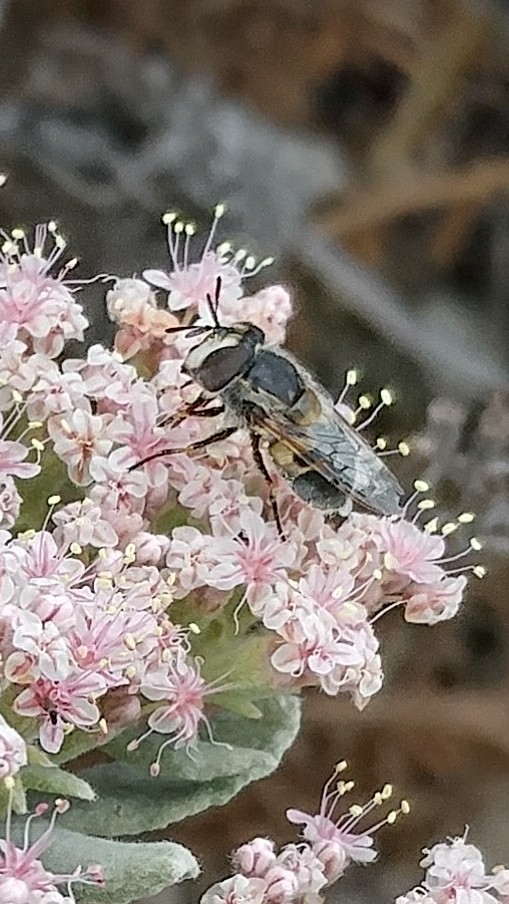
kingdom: Animalia
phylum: Arthropoda
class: Insecta
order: Diptera
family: Syrphidae
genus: Copestylum
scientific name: Copestylum lentum
